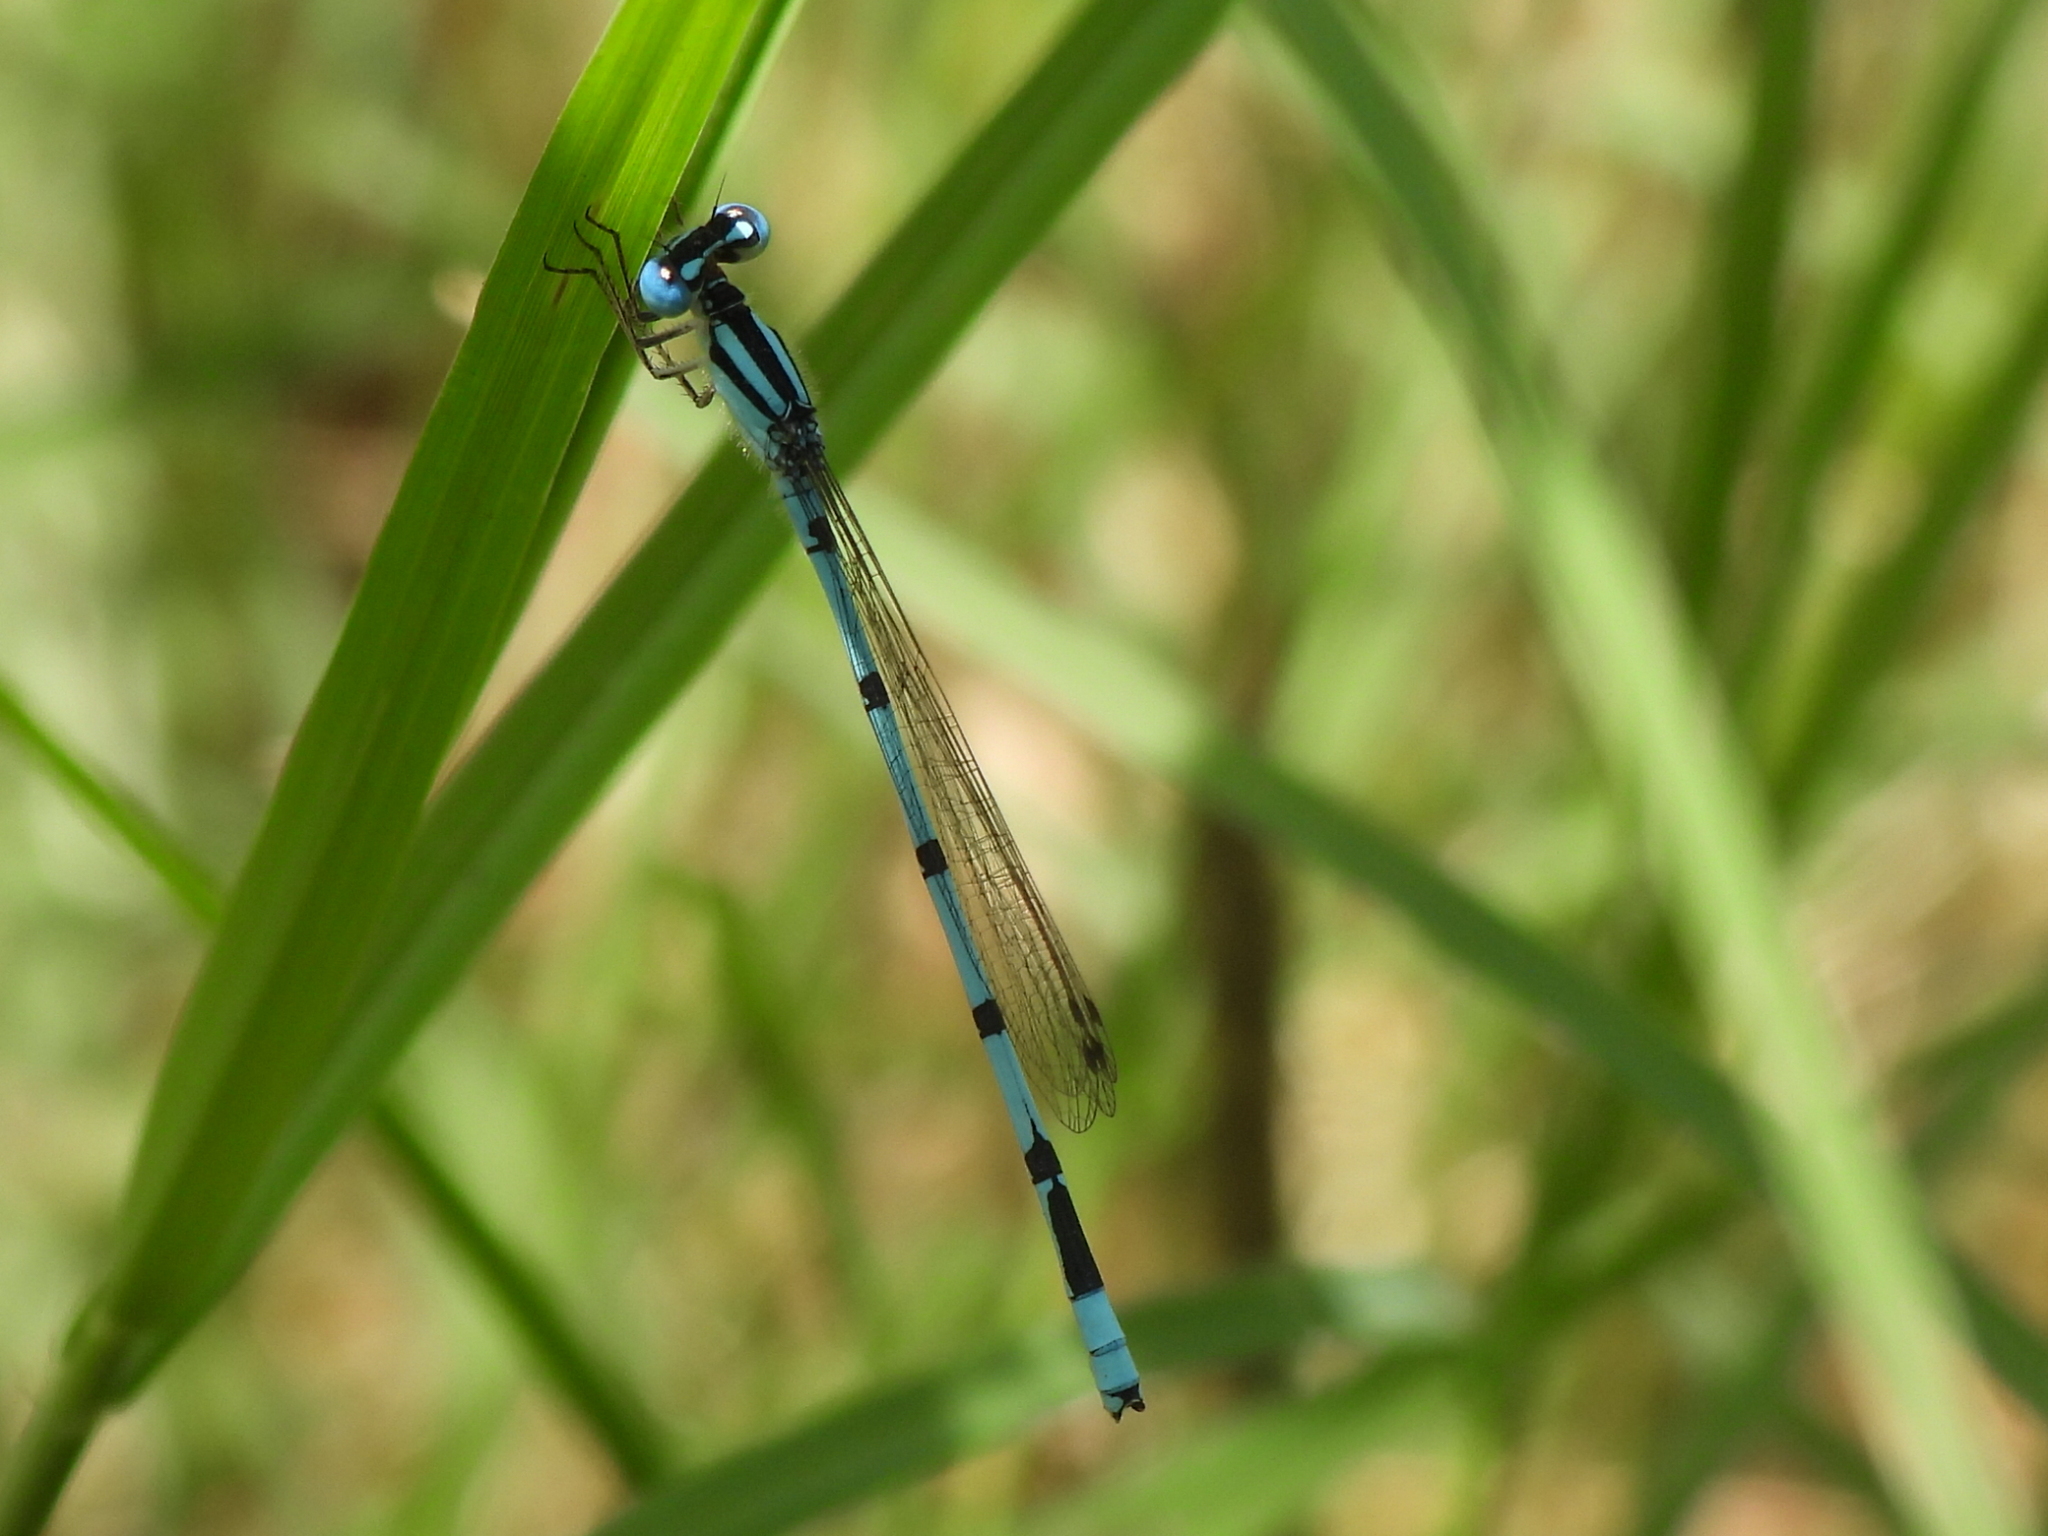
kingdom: Animalia
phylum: Arthropoda
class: Insecta
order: Odonata
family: Coenagrionidae
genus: Enallagma
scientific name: Enallagma civile
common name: Damselfly
